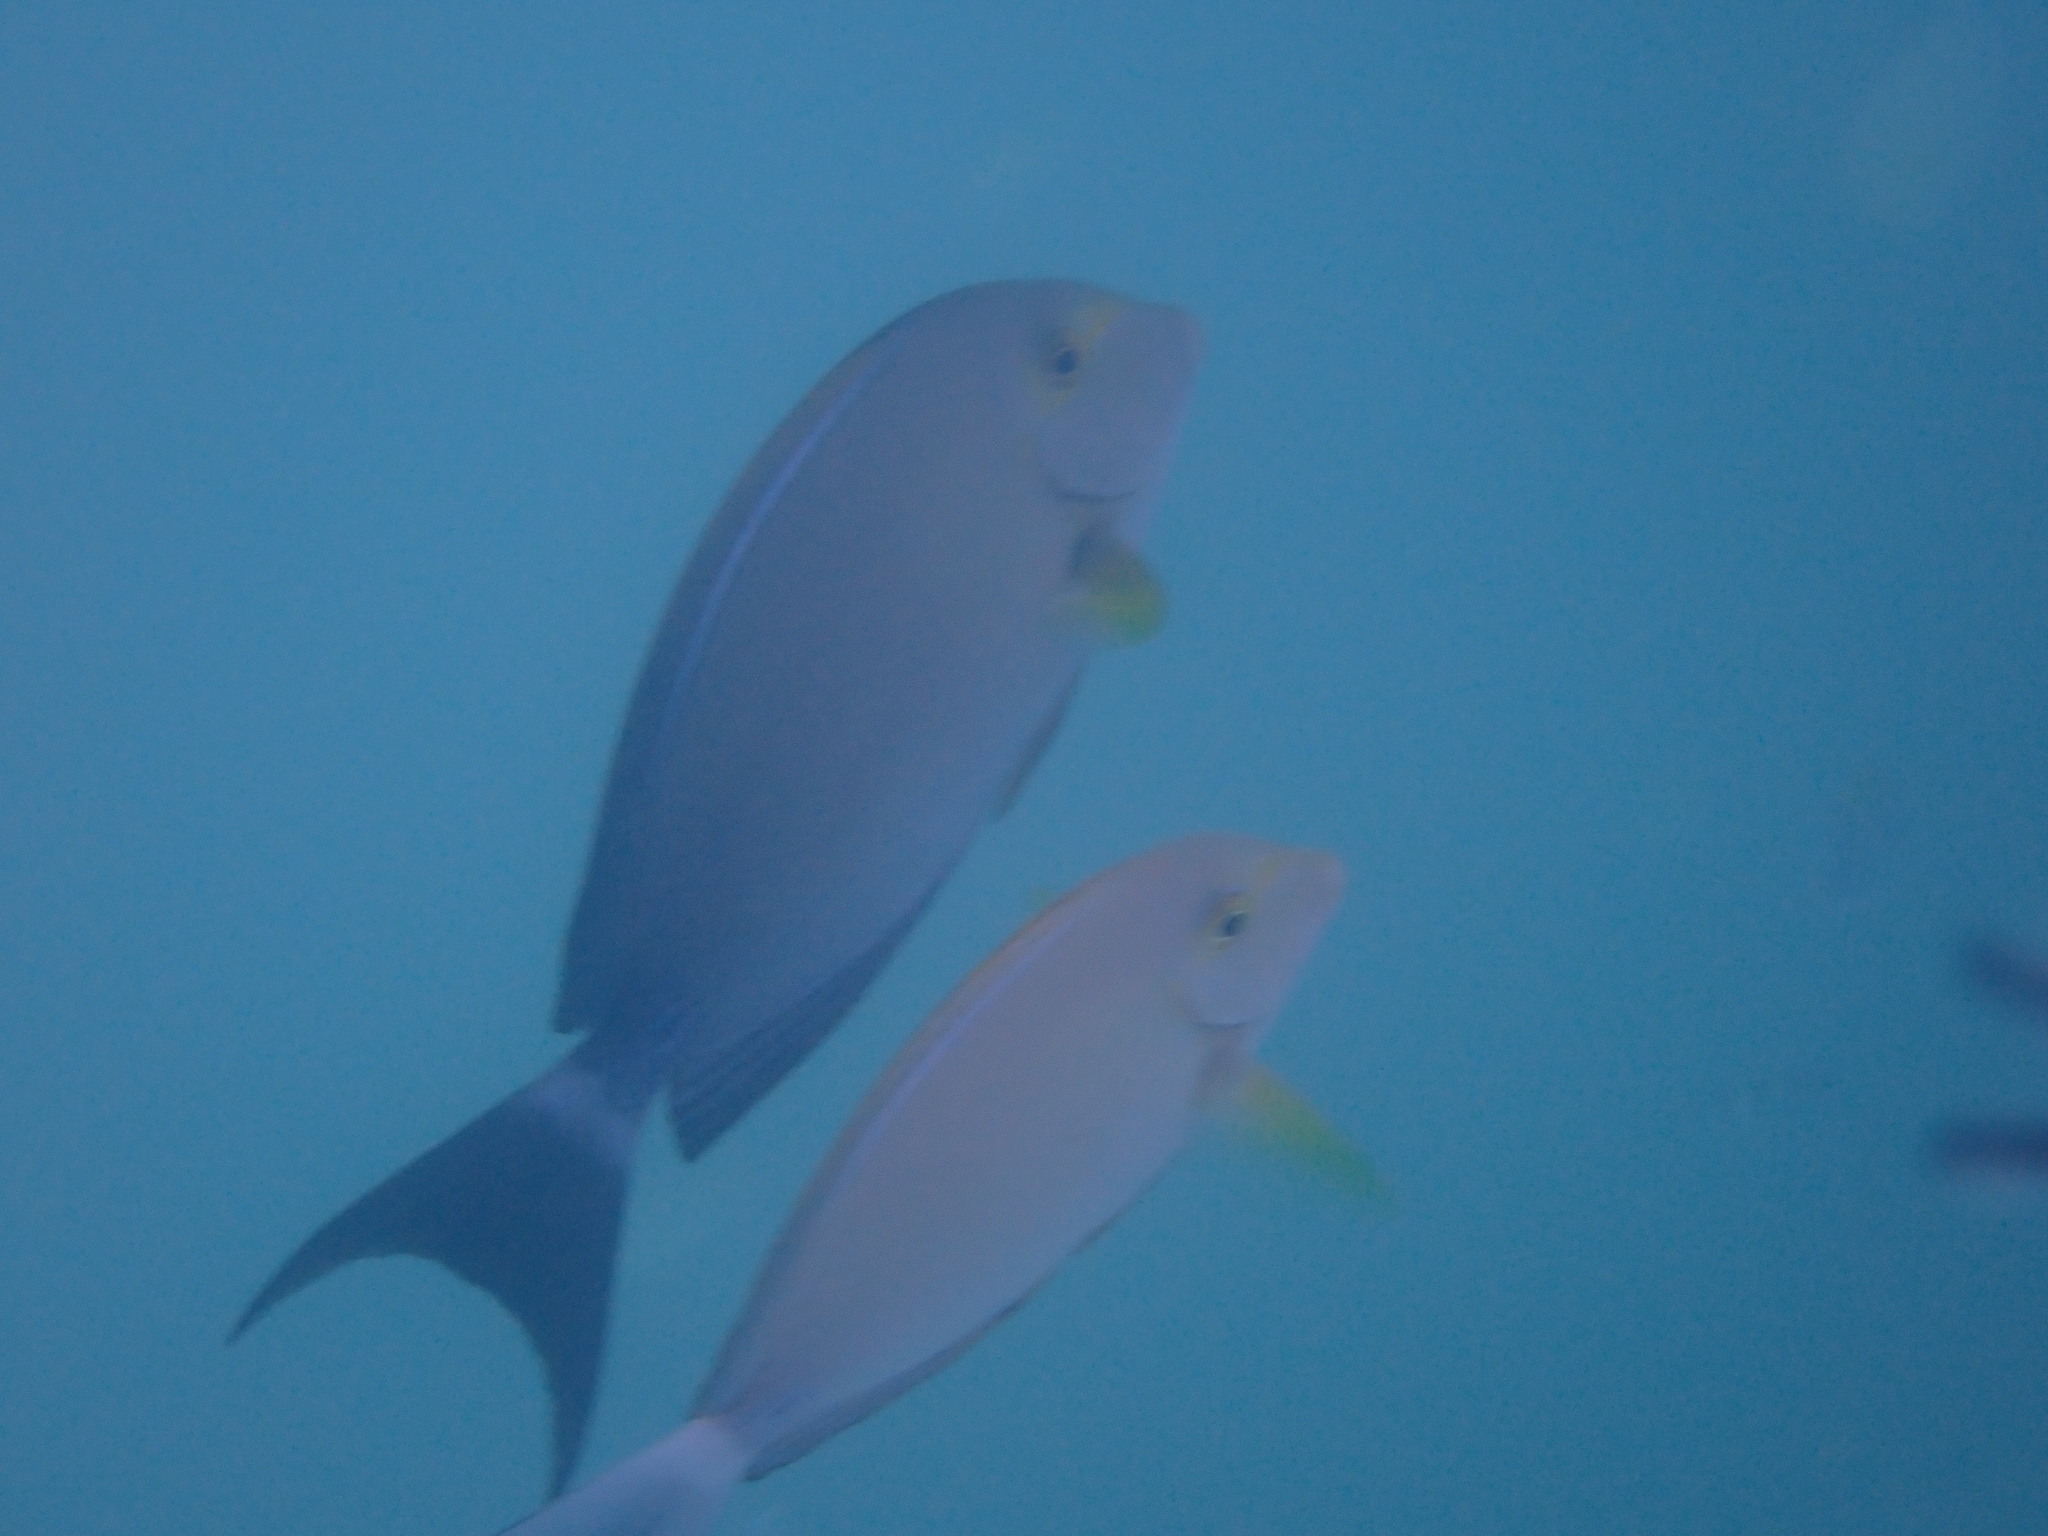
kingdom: Animalia
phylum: Chordata
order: Perciformes
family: Acanthuridae
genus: Acanthurus
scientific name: Acanthurus xanthopterus
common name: Cuvier's surgeonfish
